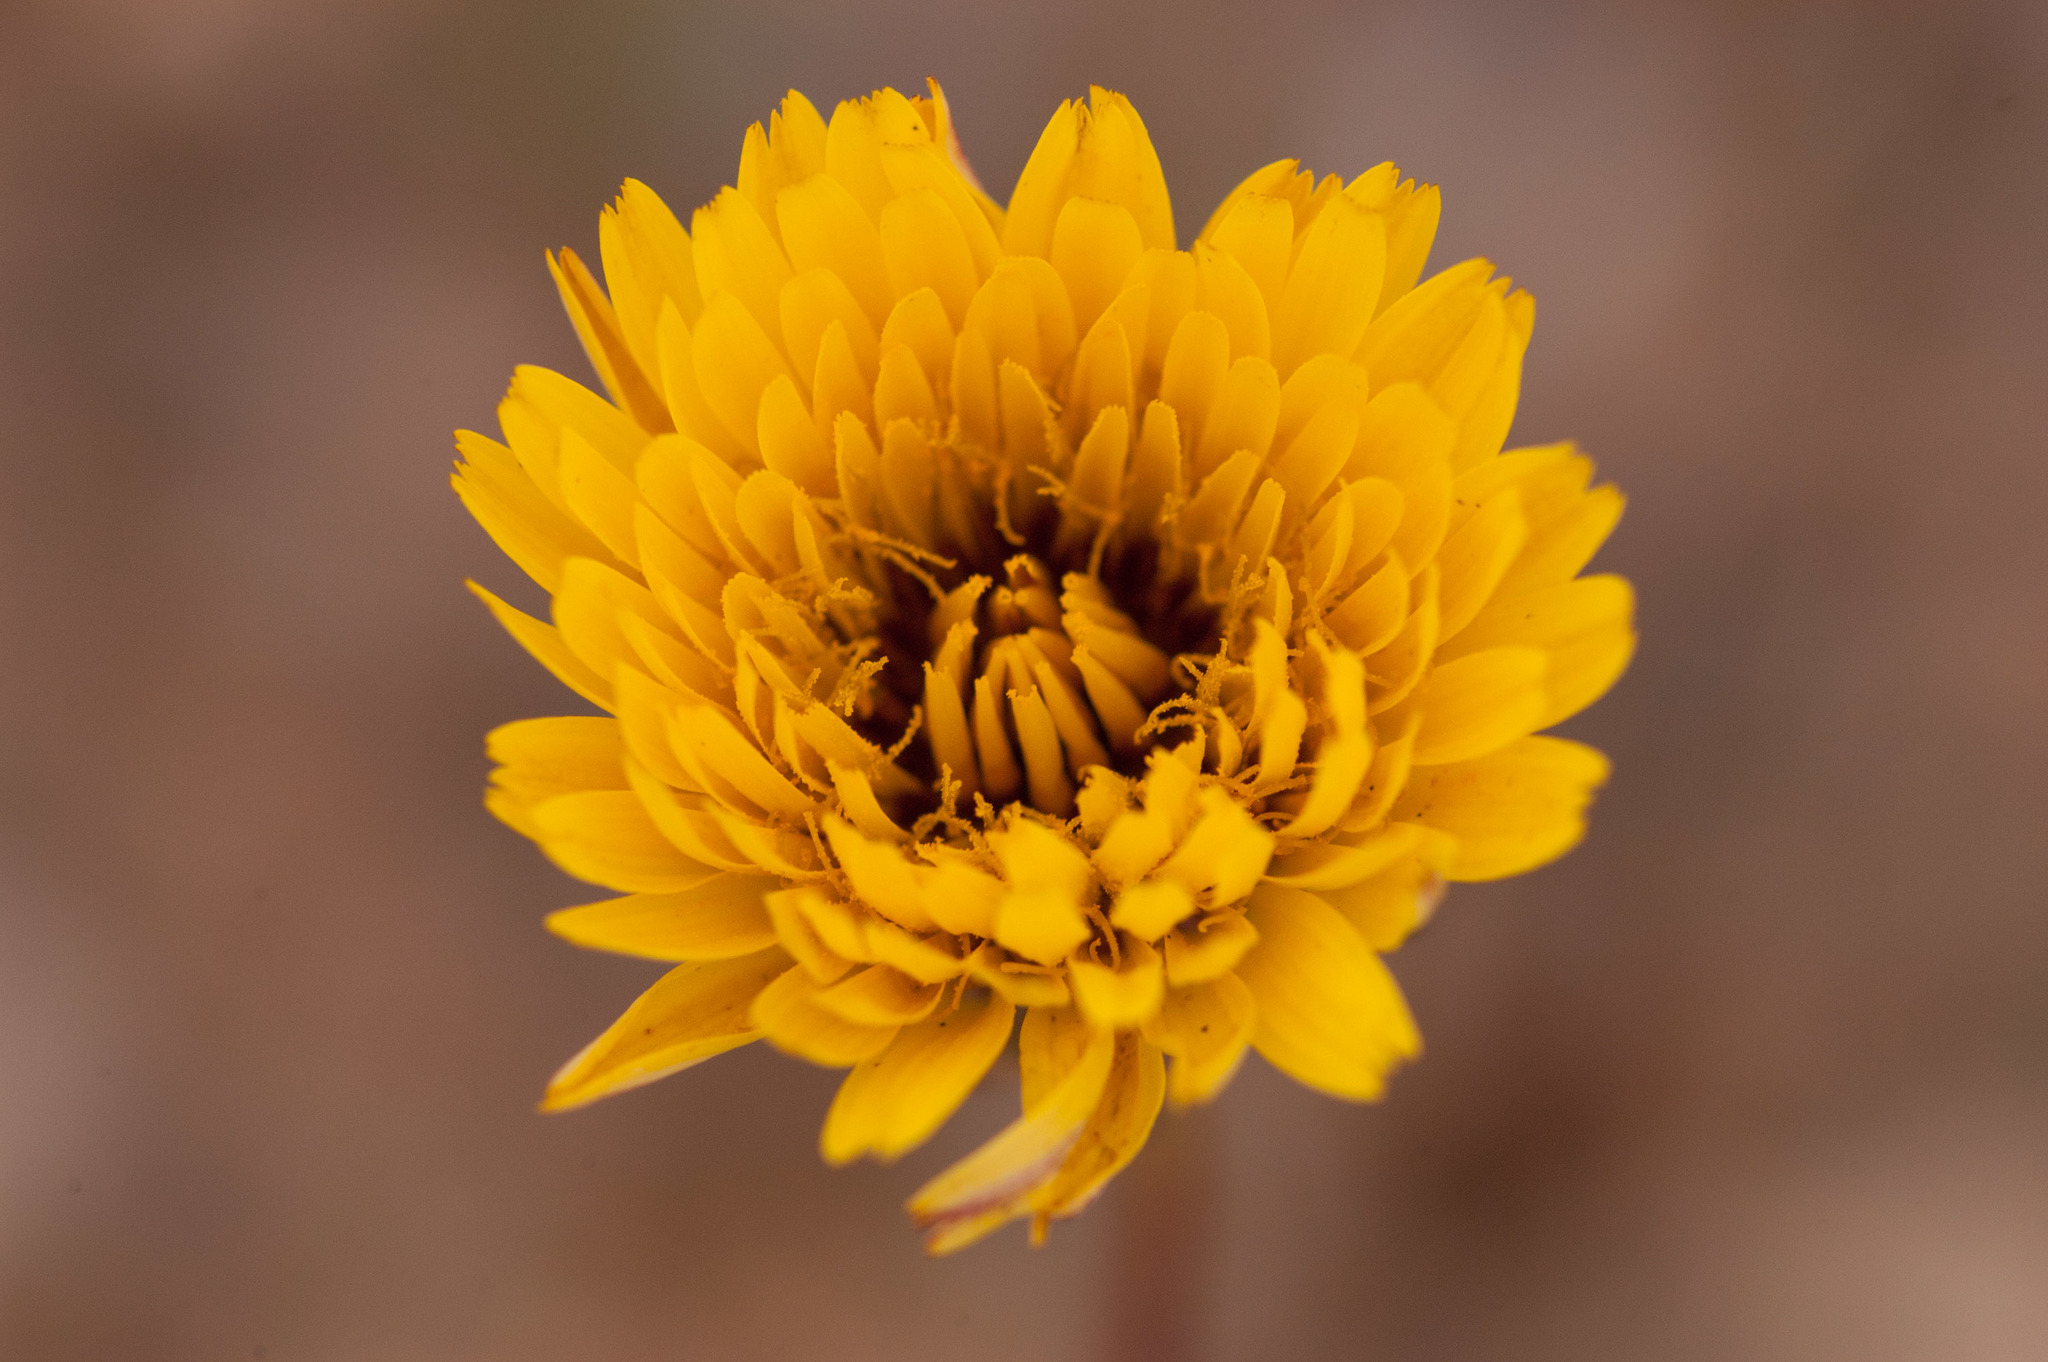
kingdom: Plantae
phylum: Tracheophyta
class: Magnoliopsida
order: Asterales
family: Asteraceae
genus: Reichardia
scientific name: Reichardia tingitana
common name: Reichardia
